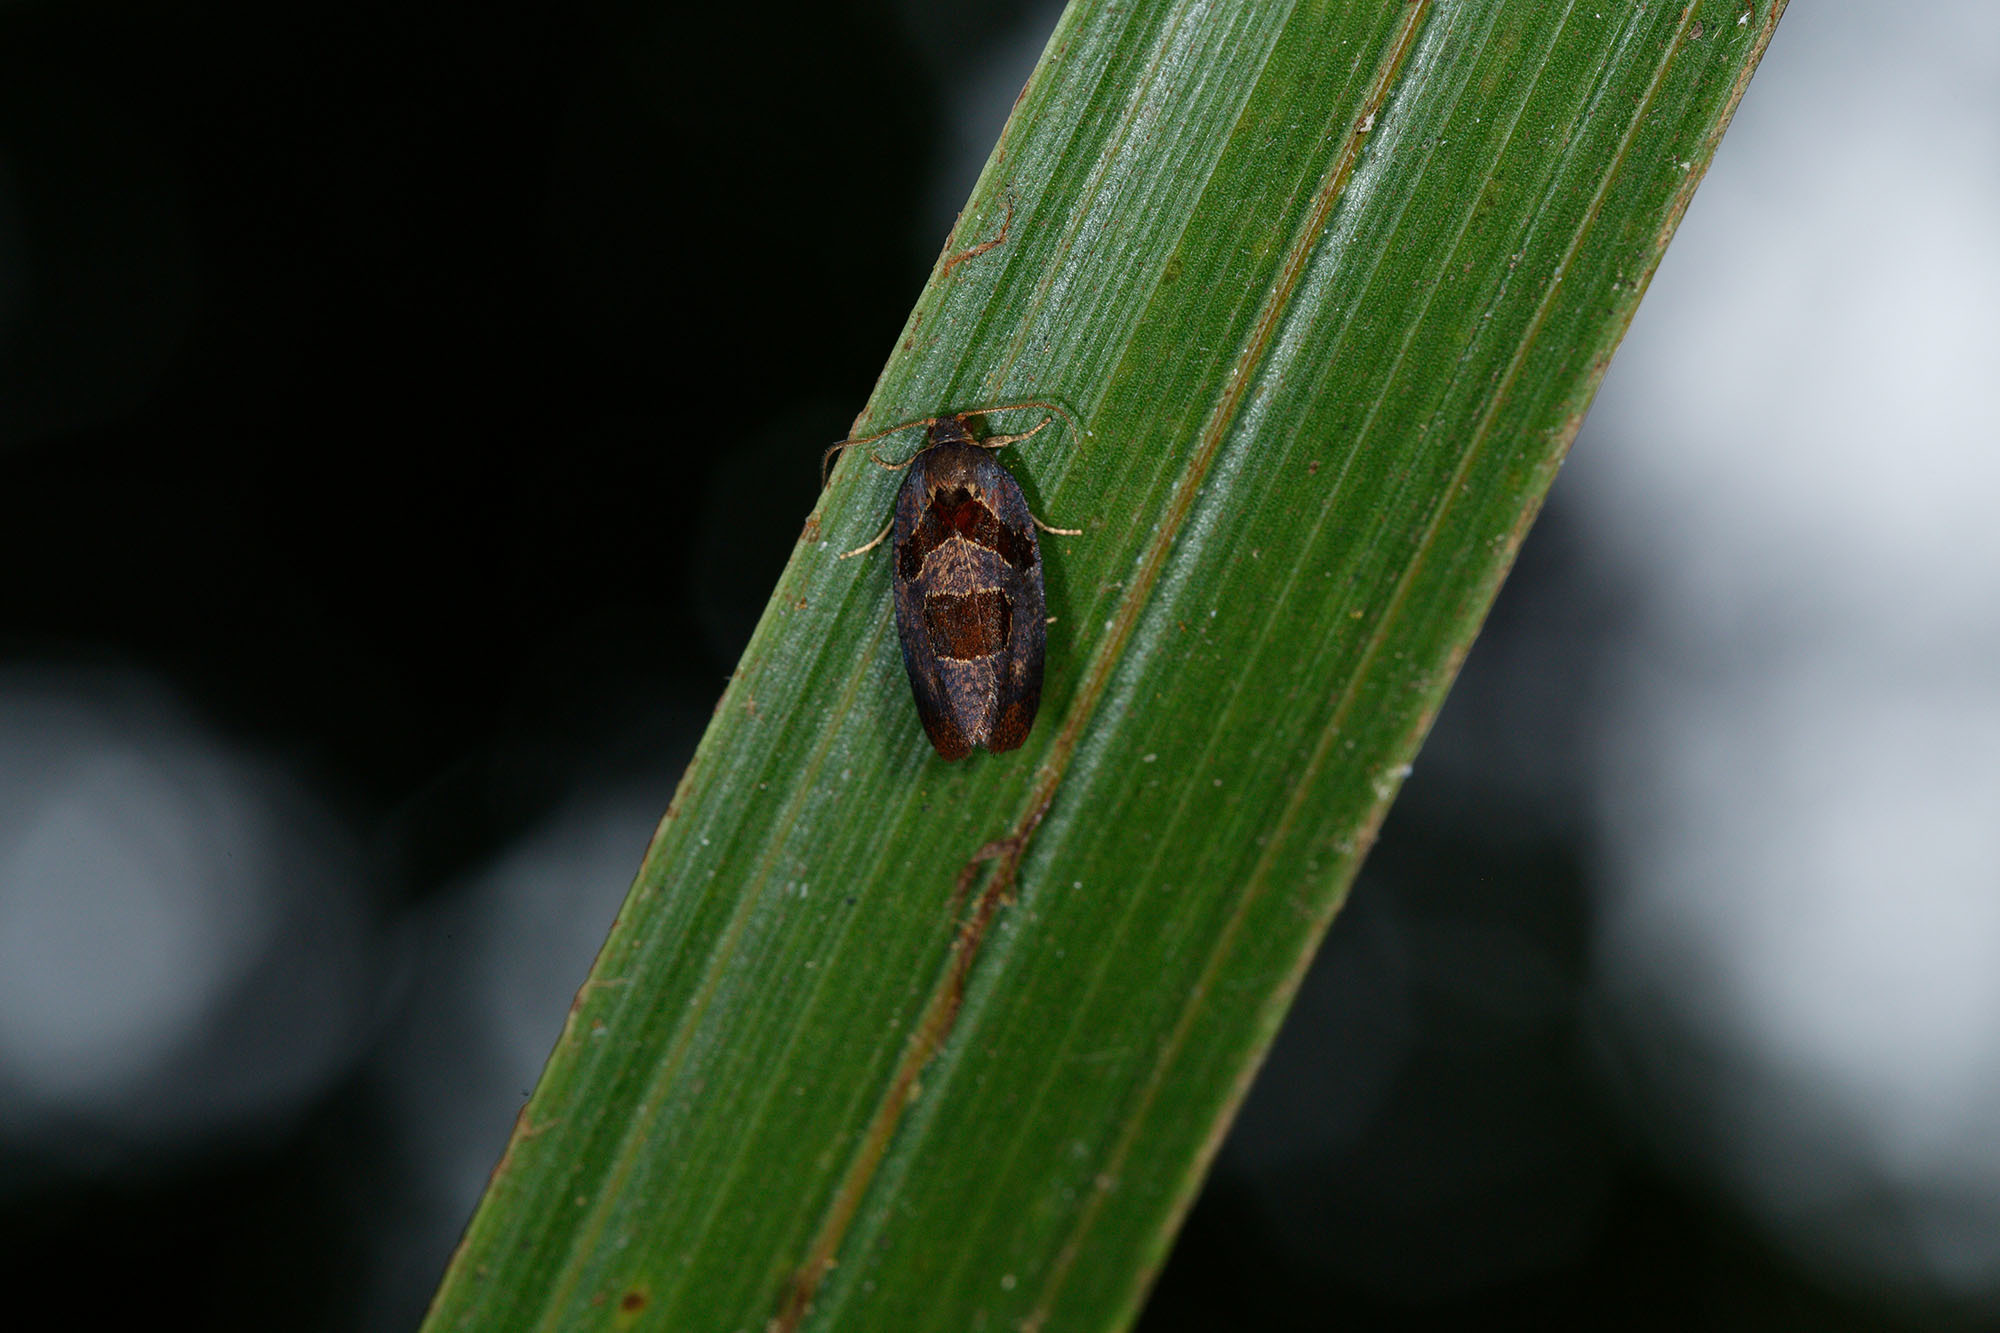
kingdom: Animalia
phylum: Arthropoda
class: Insecta
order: Lepidoptera
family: Tortricidae
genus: Ochetarcha
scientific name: Ochetarcha
